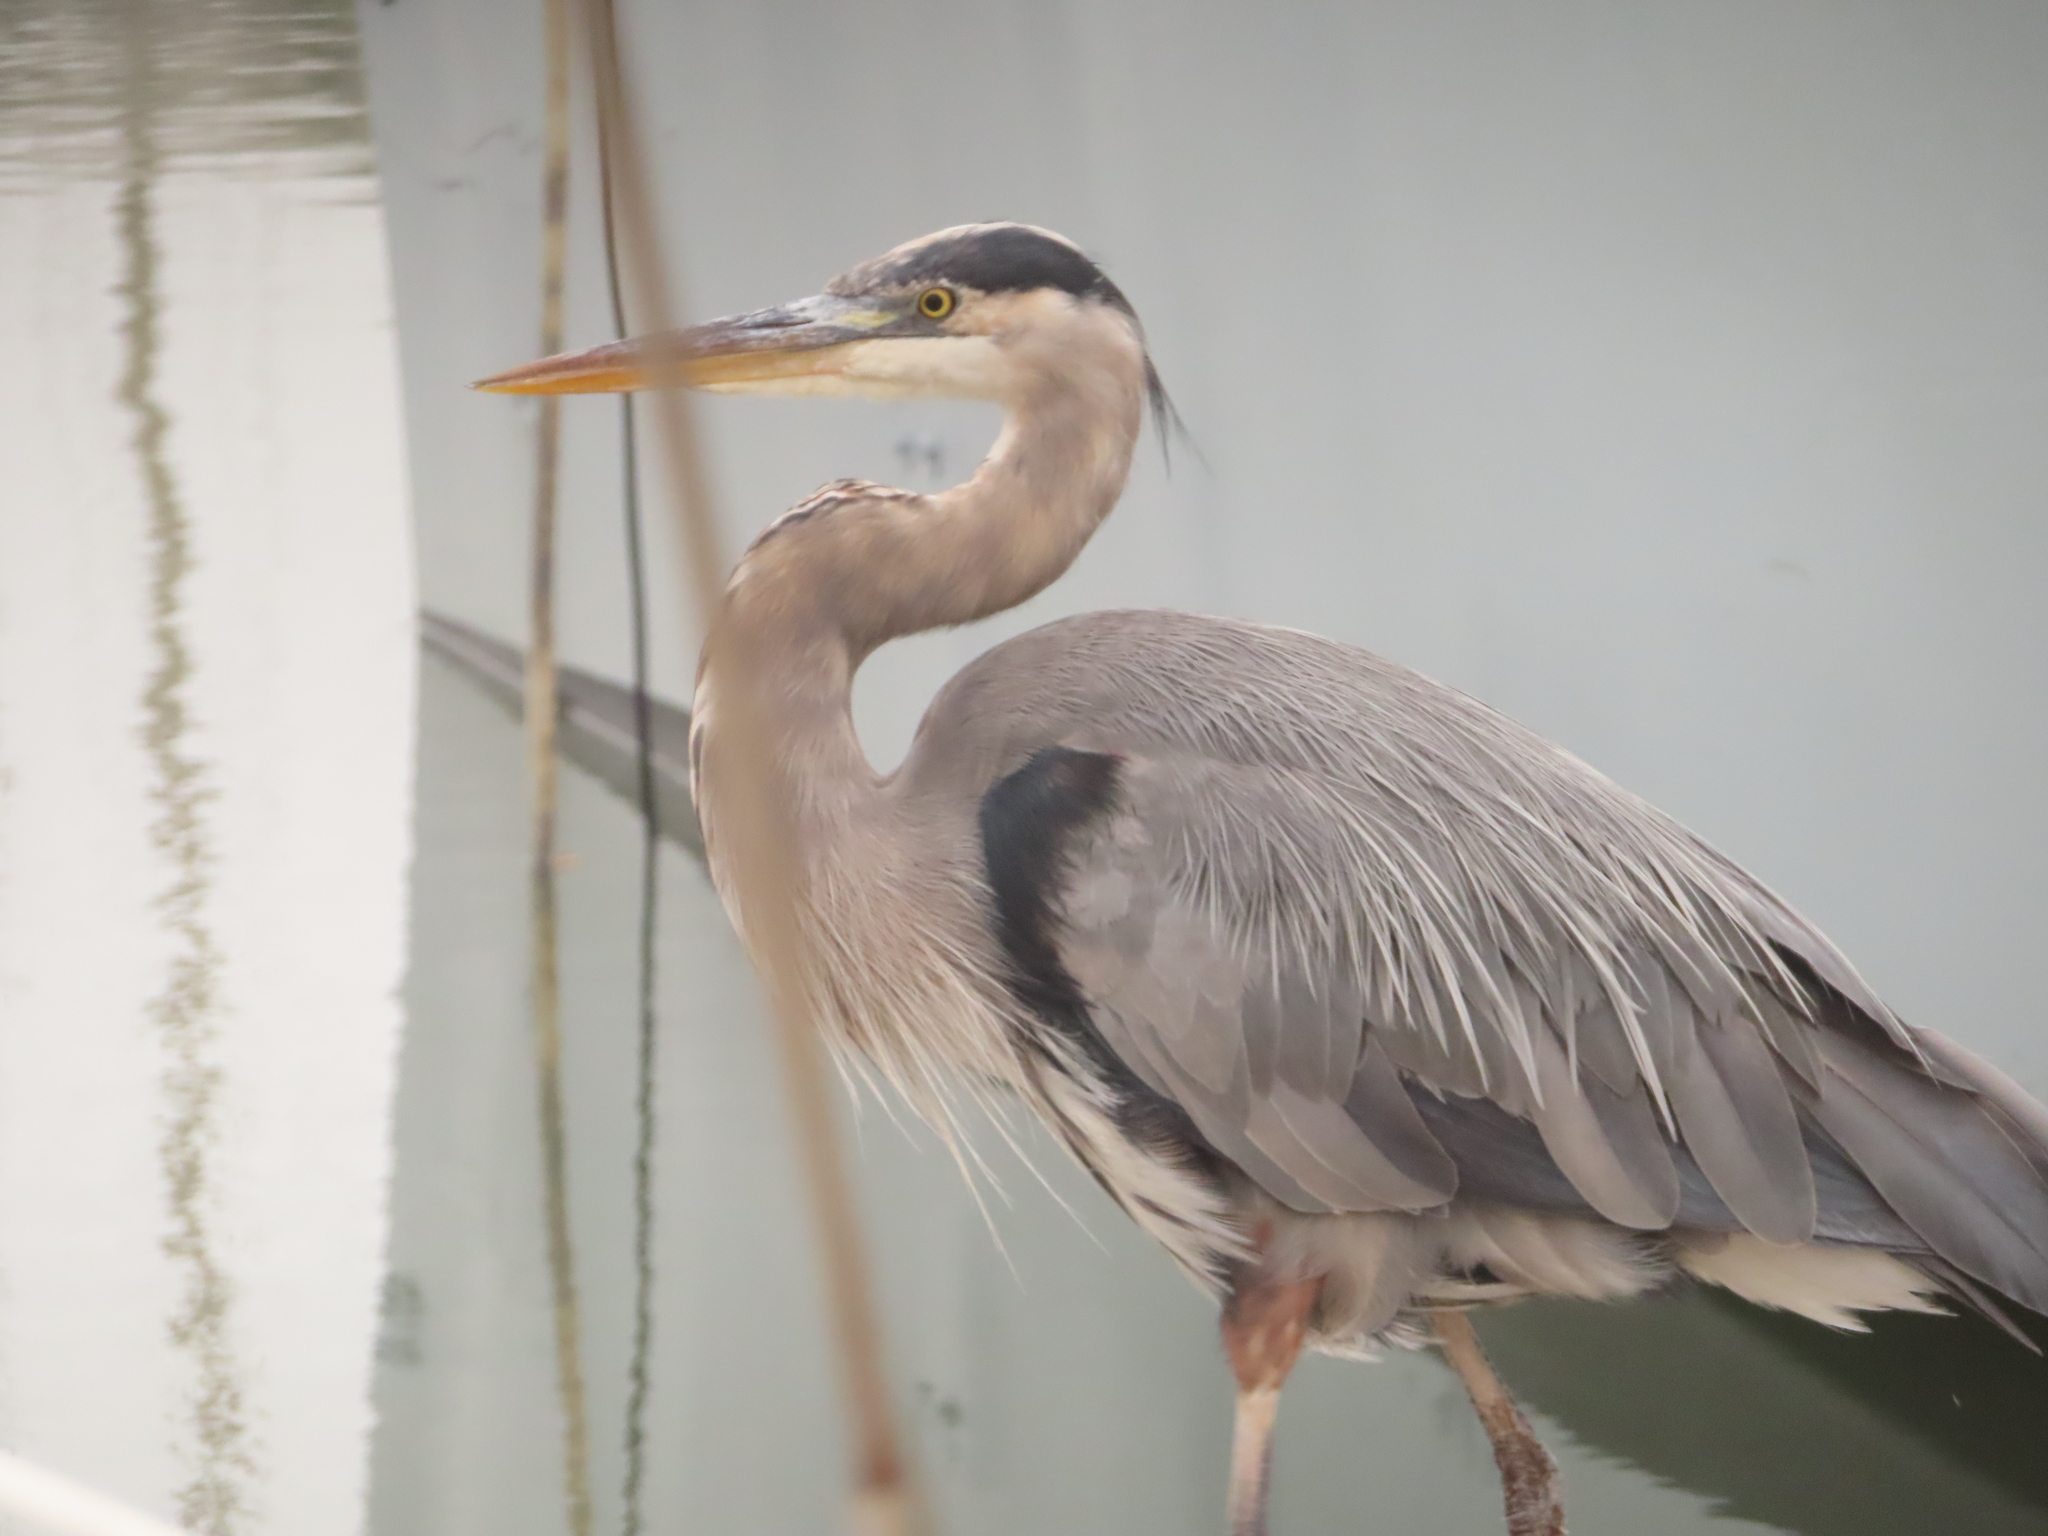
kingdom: Animalia
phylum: Chordata
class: Aves
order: Pelecaniformes
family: Ardeidae
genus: Ardea
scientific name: Ardea herodias
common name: Great blue heron
